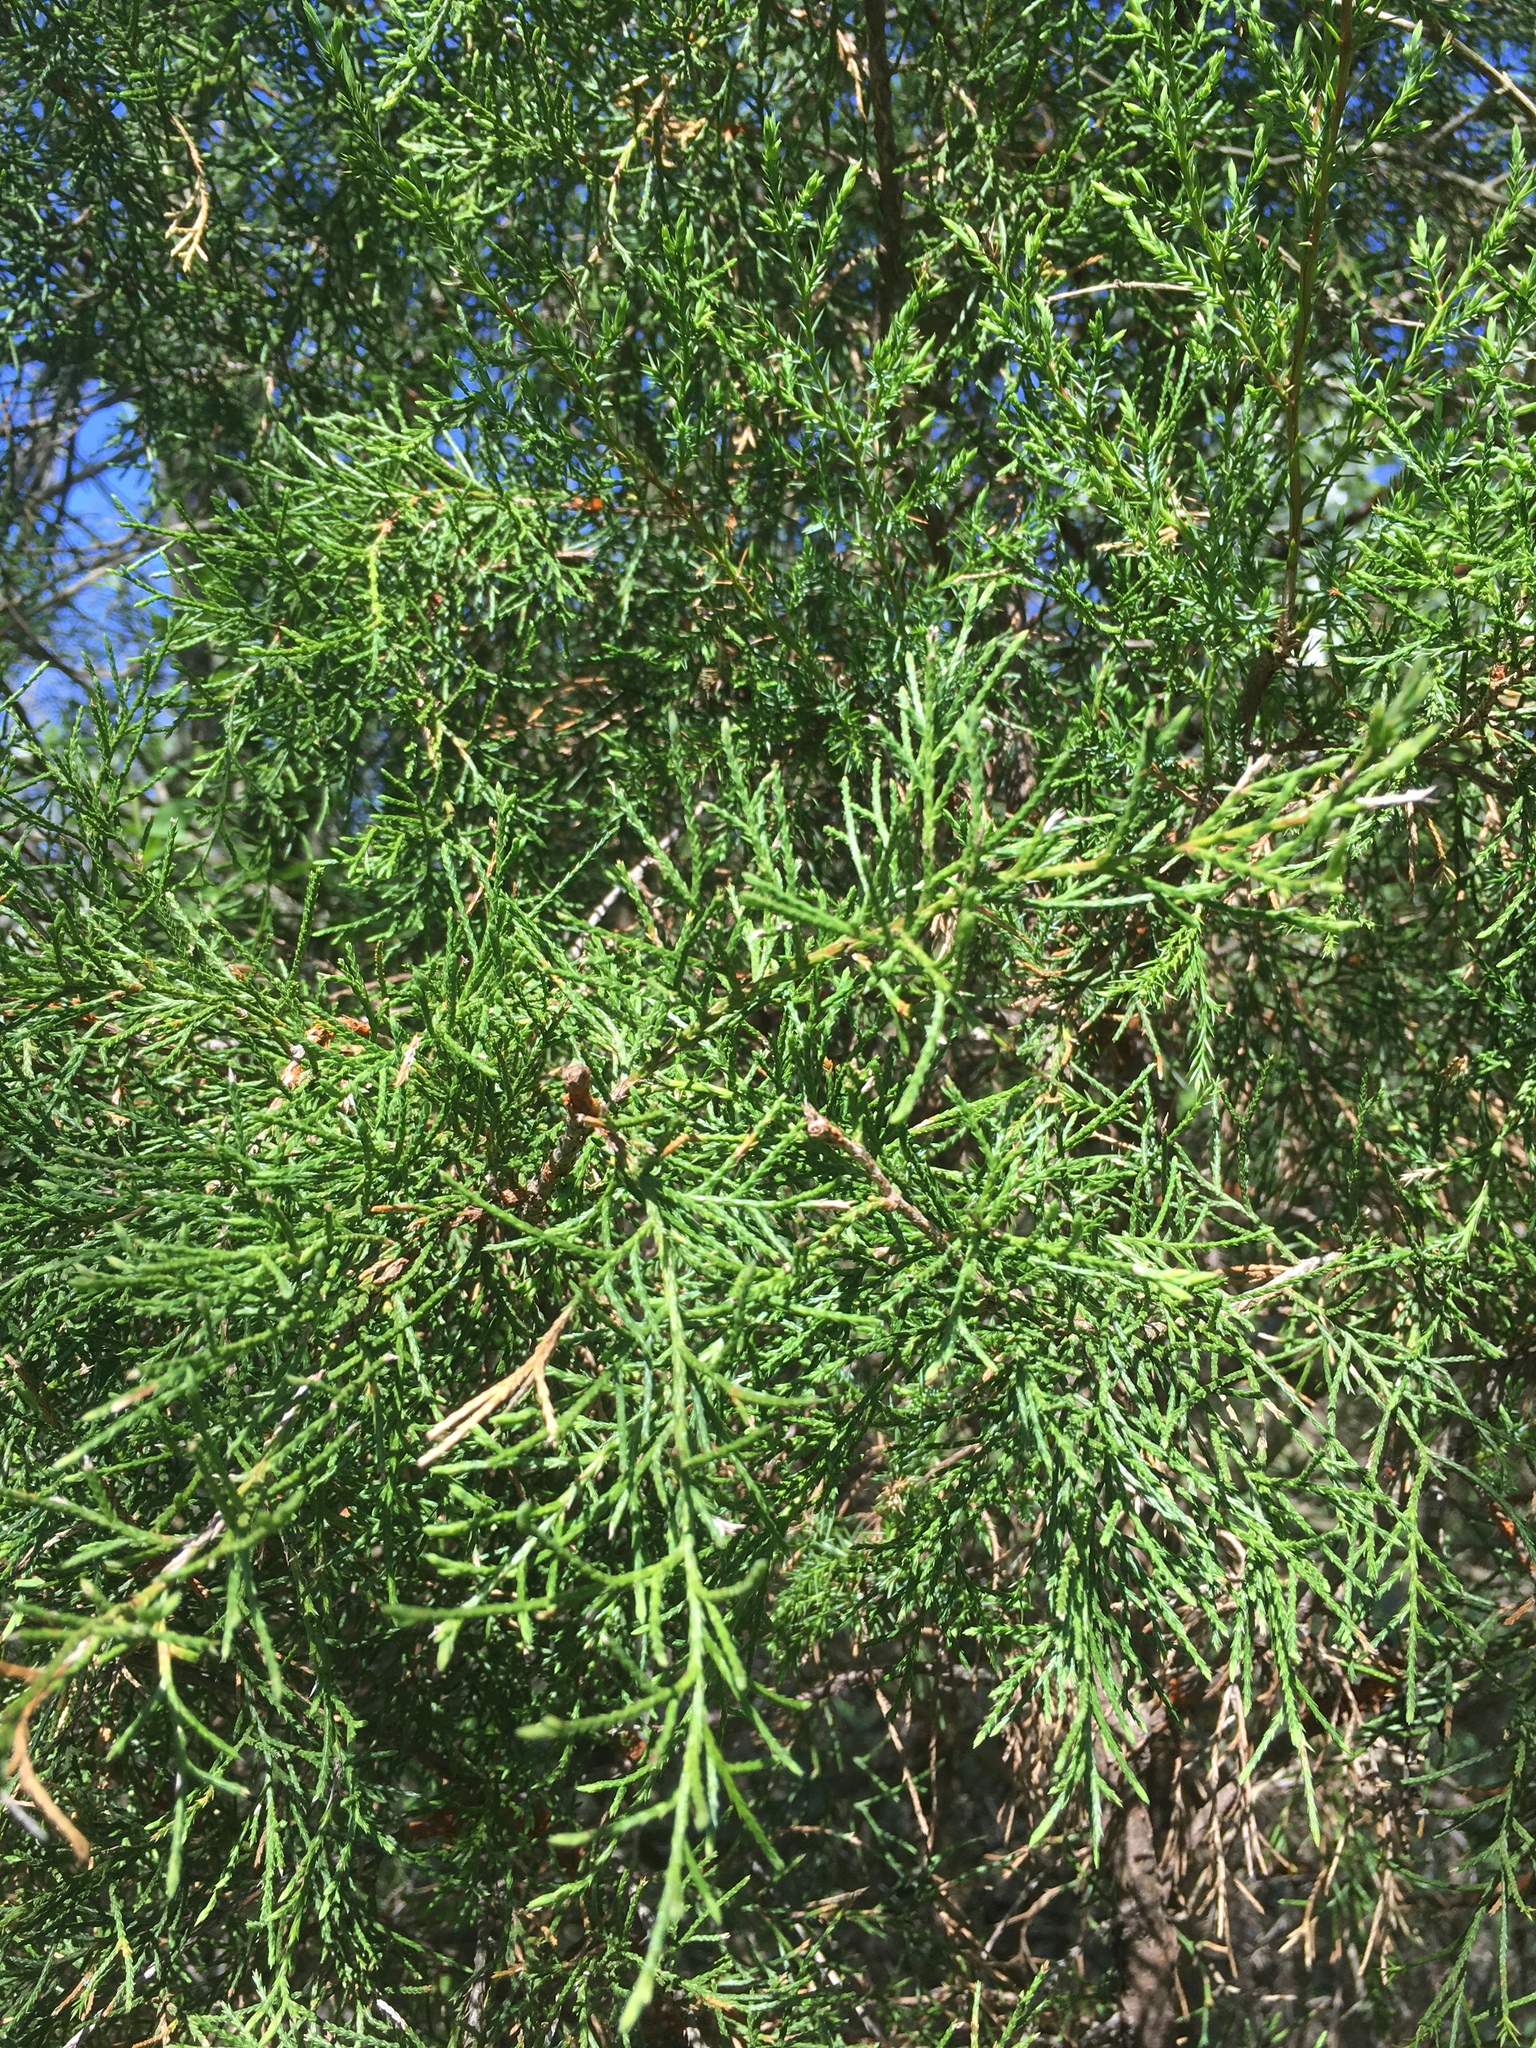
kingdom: Plantae
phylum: Tracheophyta
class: Pinopsida
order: Pinales
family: Cupressaceae
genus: Juniperus
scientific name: Juniperus virginiana
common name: Red juniper
